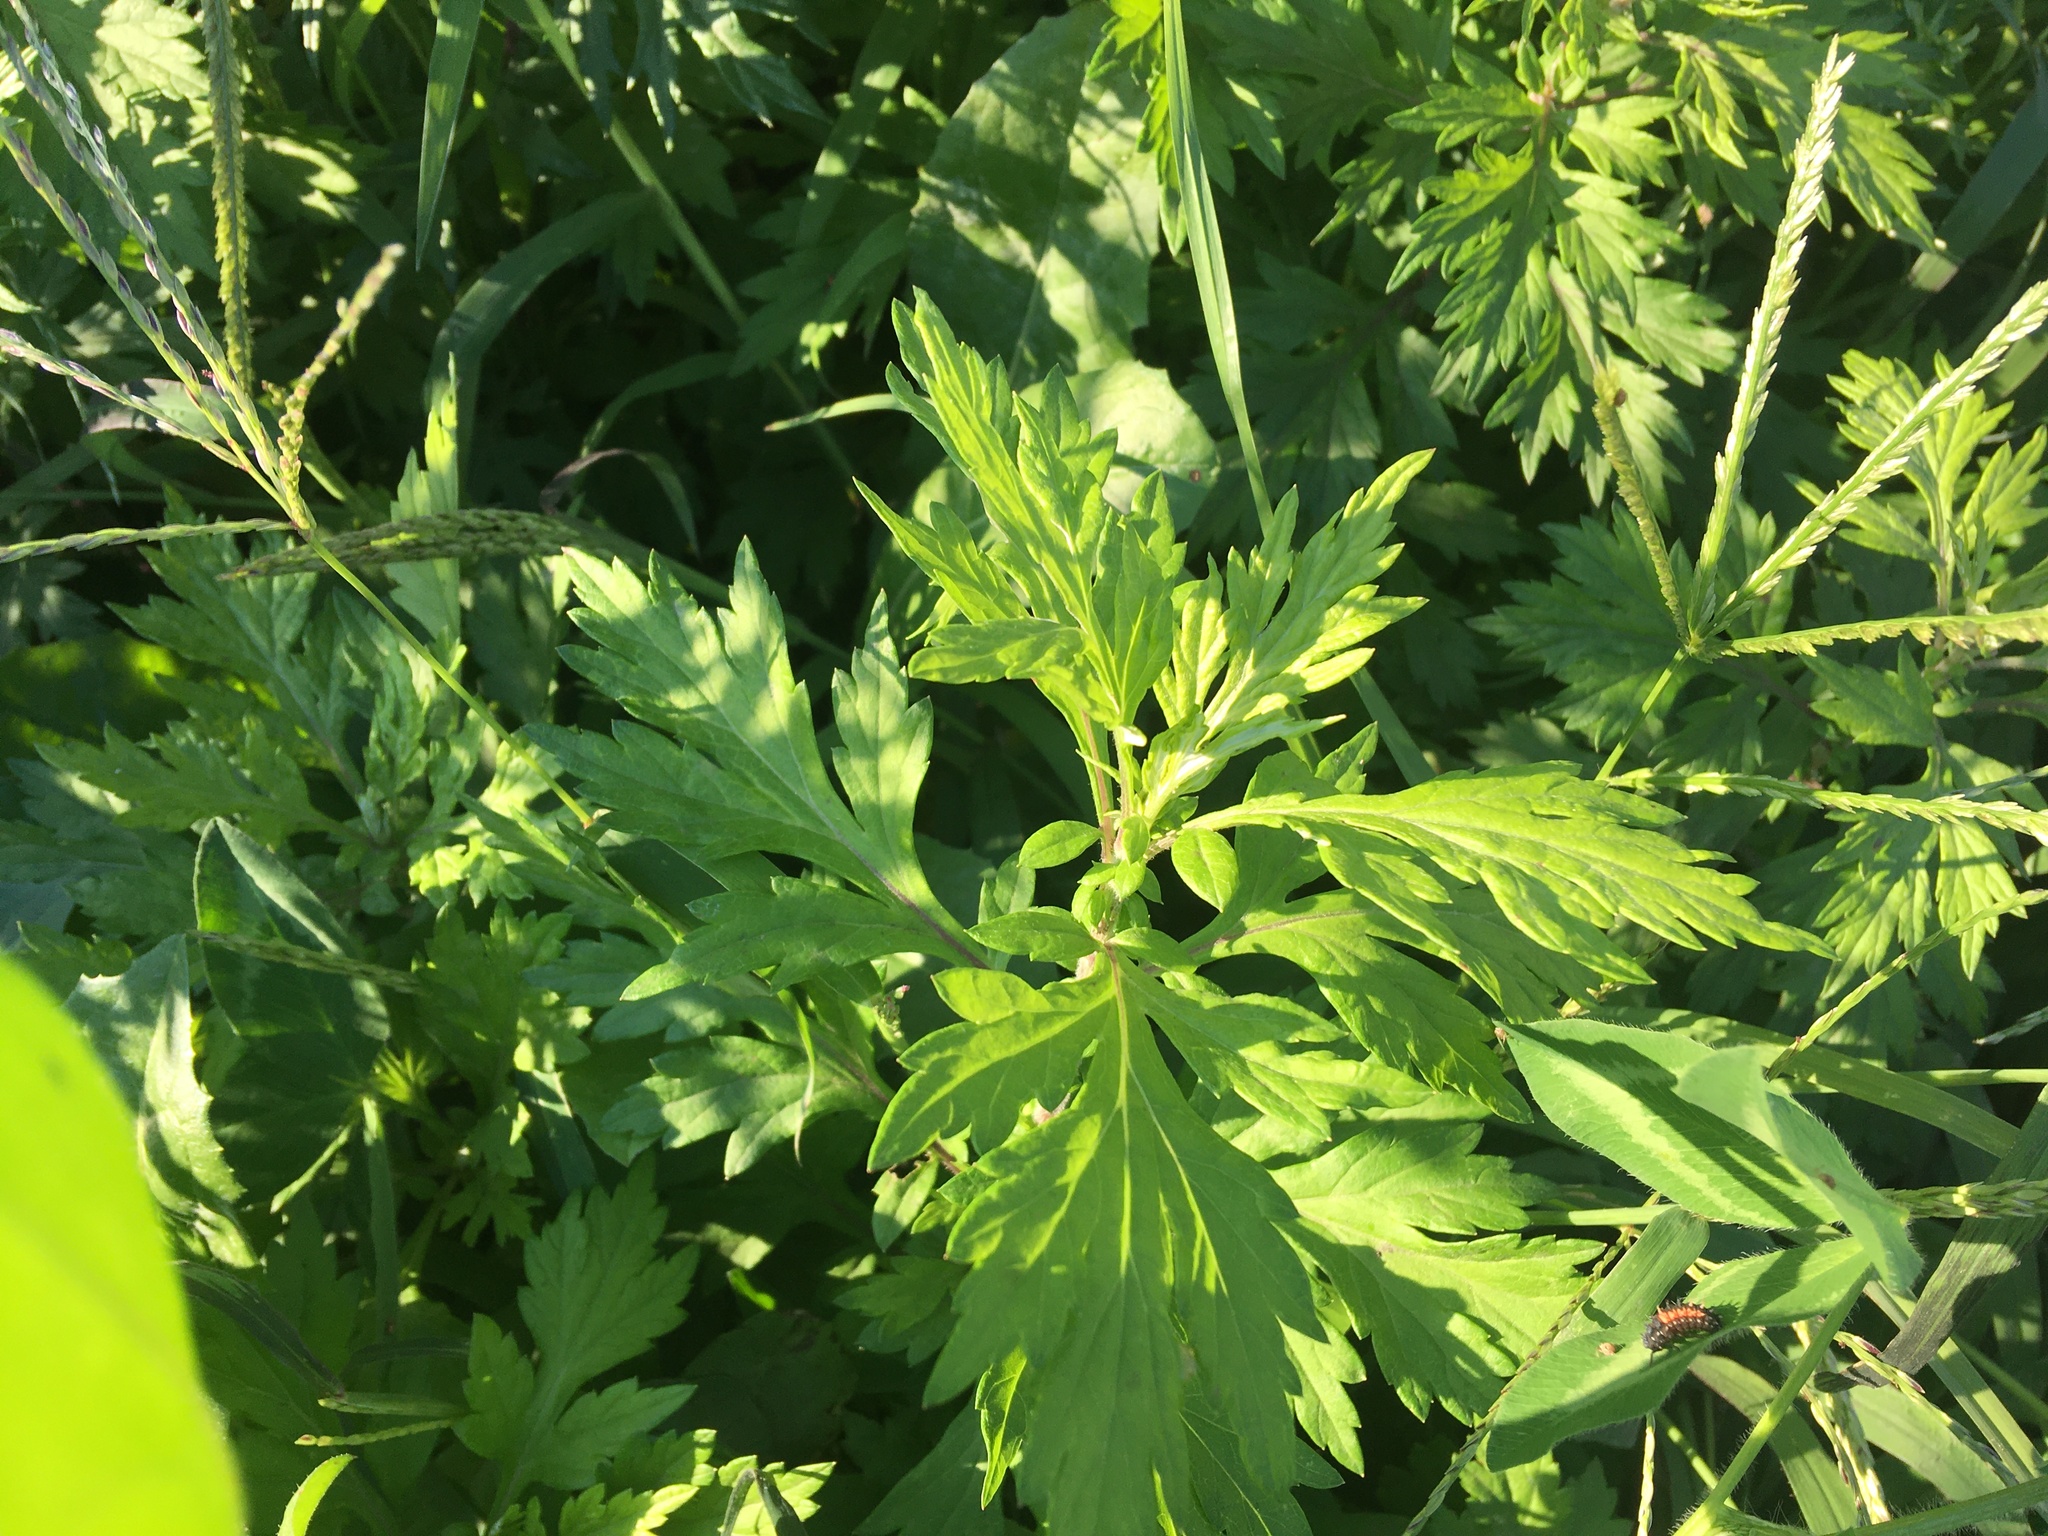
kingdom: Plantae
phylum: Tracheophyta
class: Magnoliopsida
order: Asterales
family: Asteraceae
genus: Artemisia
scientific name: Artemisia vulgaris
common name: Mugwort
